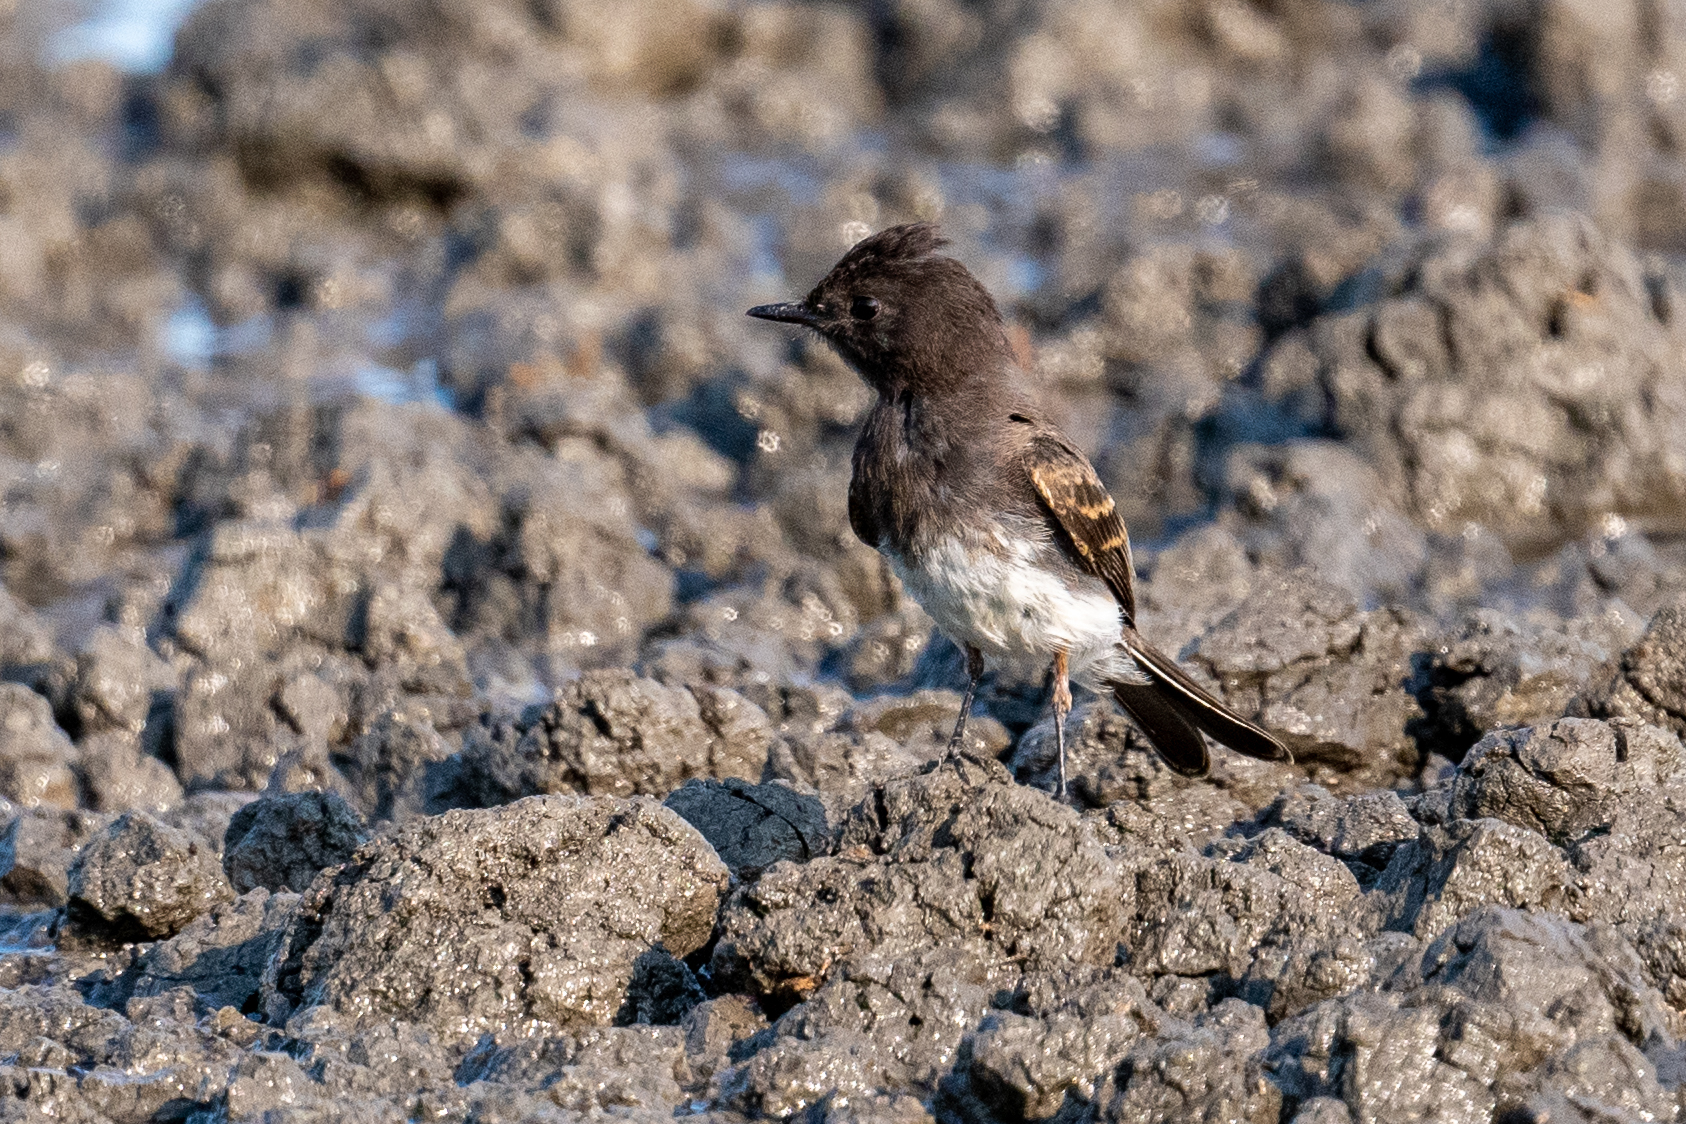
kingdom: Animalia
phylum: Chordata
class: Aves
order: Passeriformes
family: Tyrannidae
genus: Sayornis
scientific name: Sayornis nigricans
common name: Black phoebe
